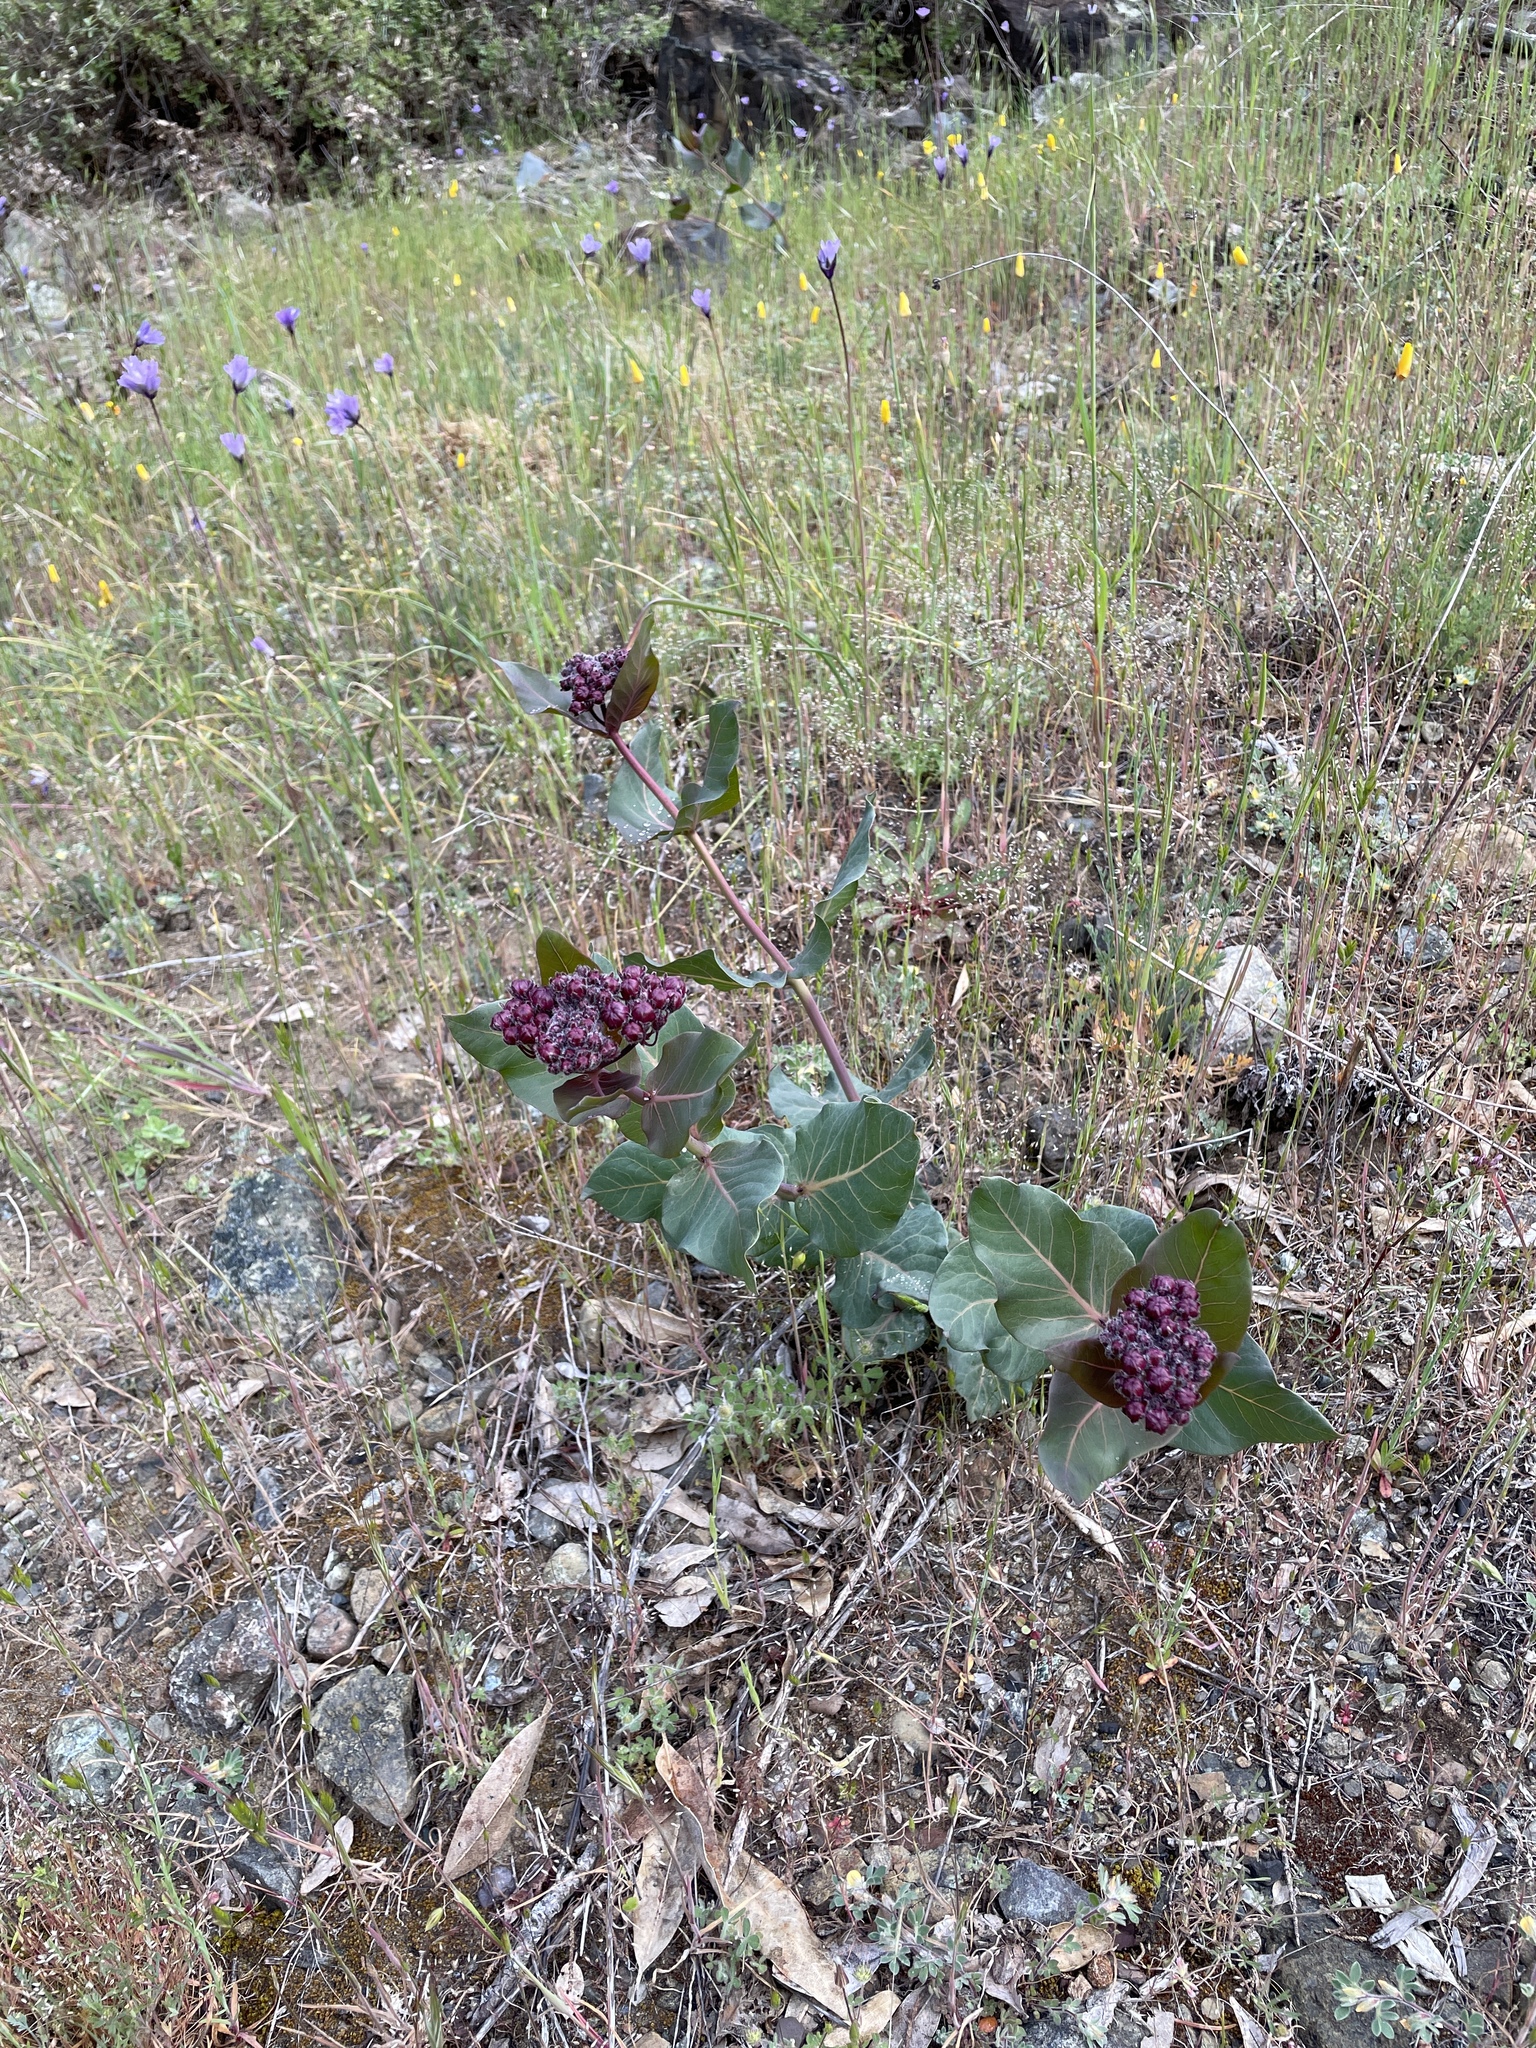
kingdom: Plantae
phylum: Tracheophyta
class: Magnoliopsida
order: Gentianales
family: Apocynaceae
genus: Asclepias
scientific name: Asclepias cordifolia
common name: Purple milkweed
